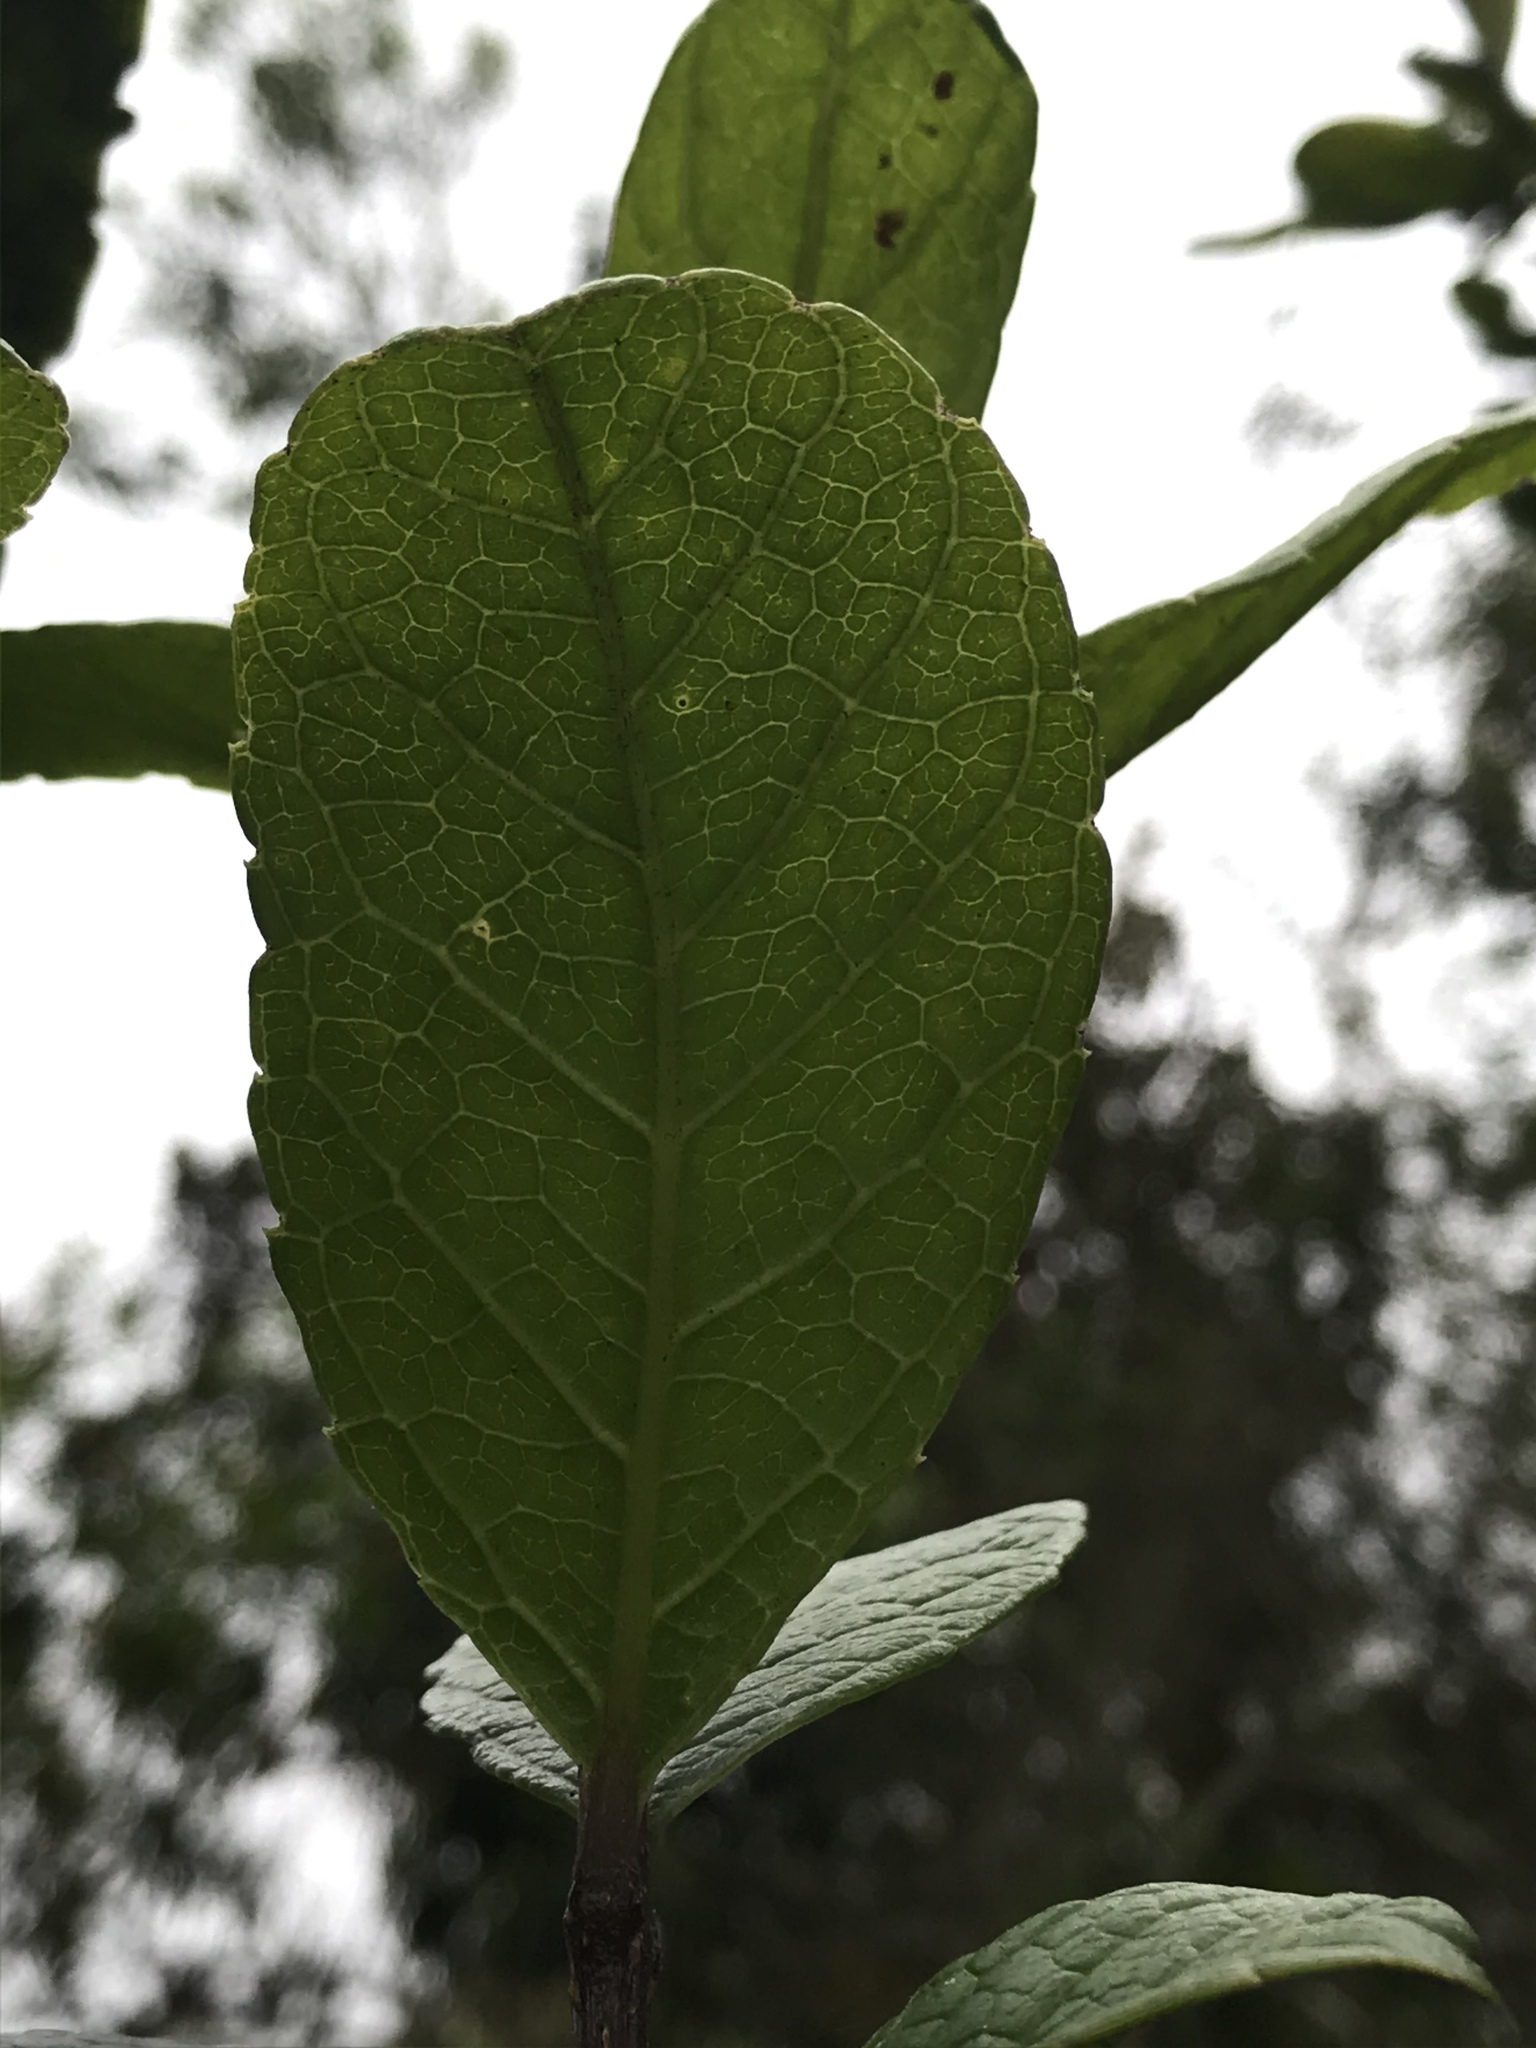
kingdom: Plantae
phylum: Tracheophyta
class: Magnoliopsida
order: Lamiales
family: Verbenaceae
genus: Citharexylum
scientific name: Citharexylum reticulatum
